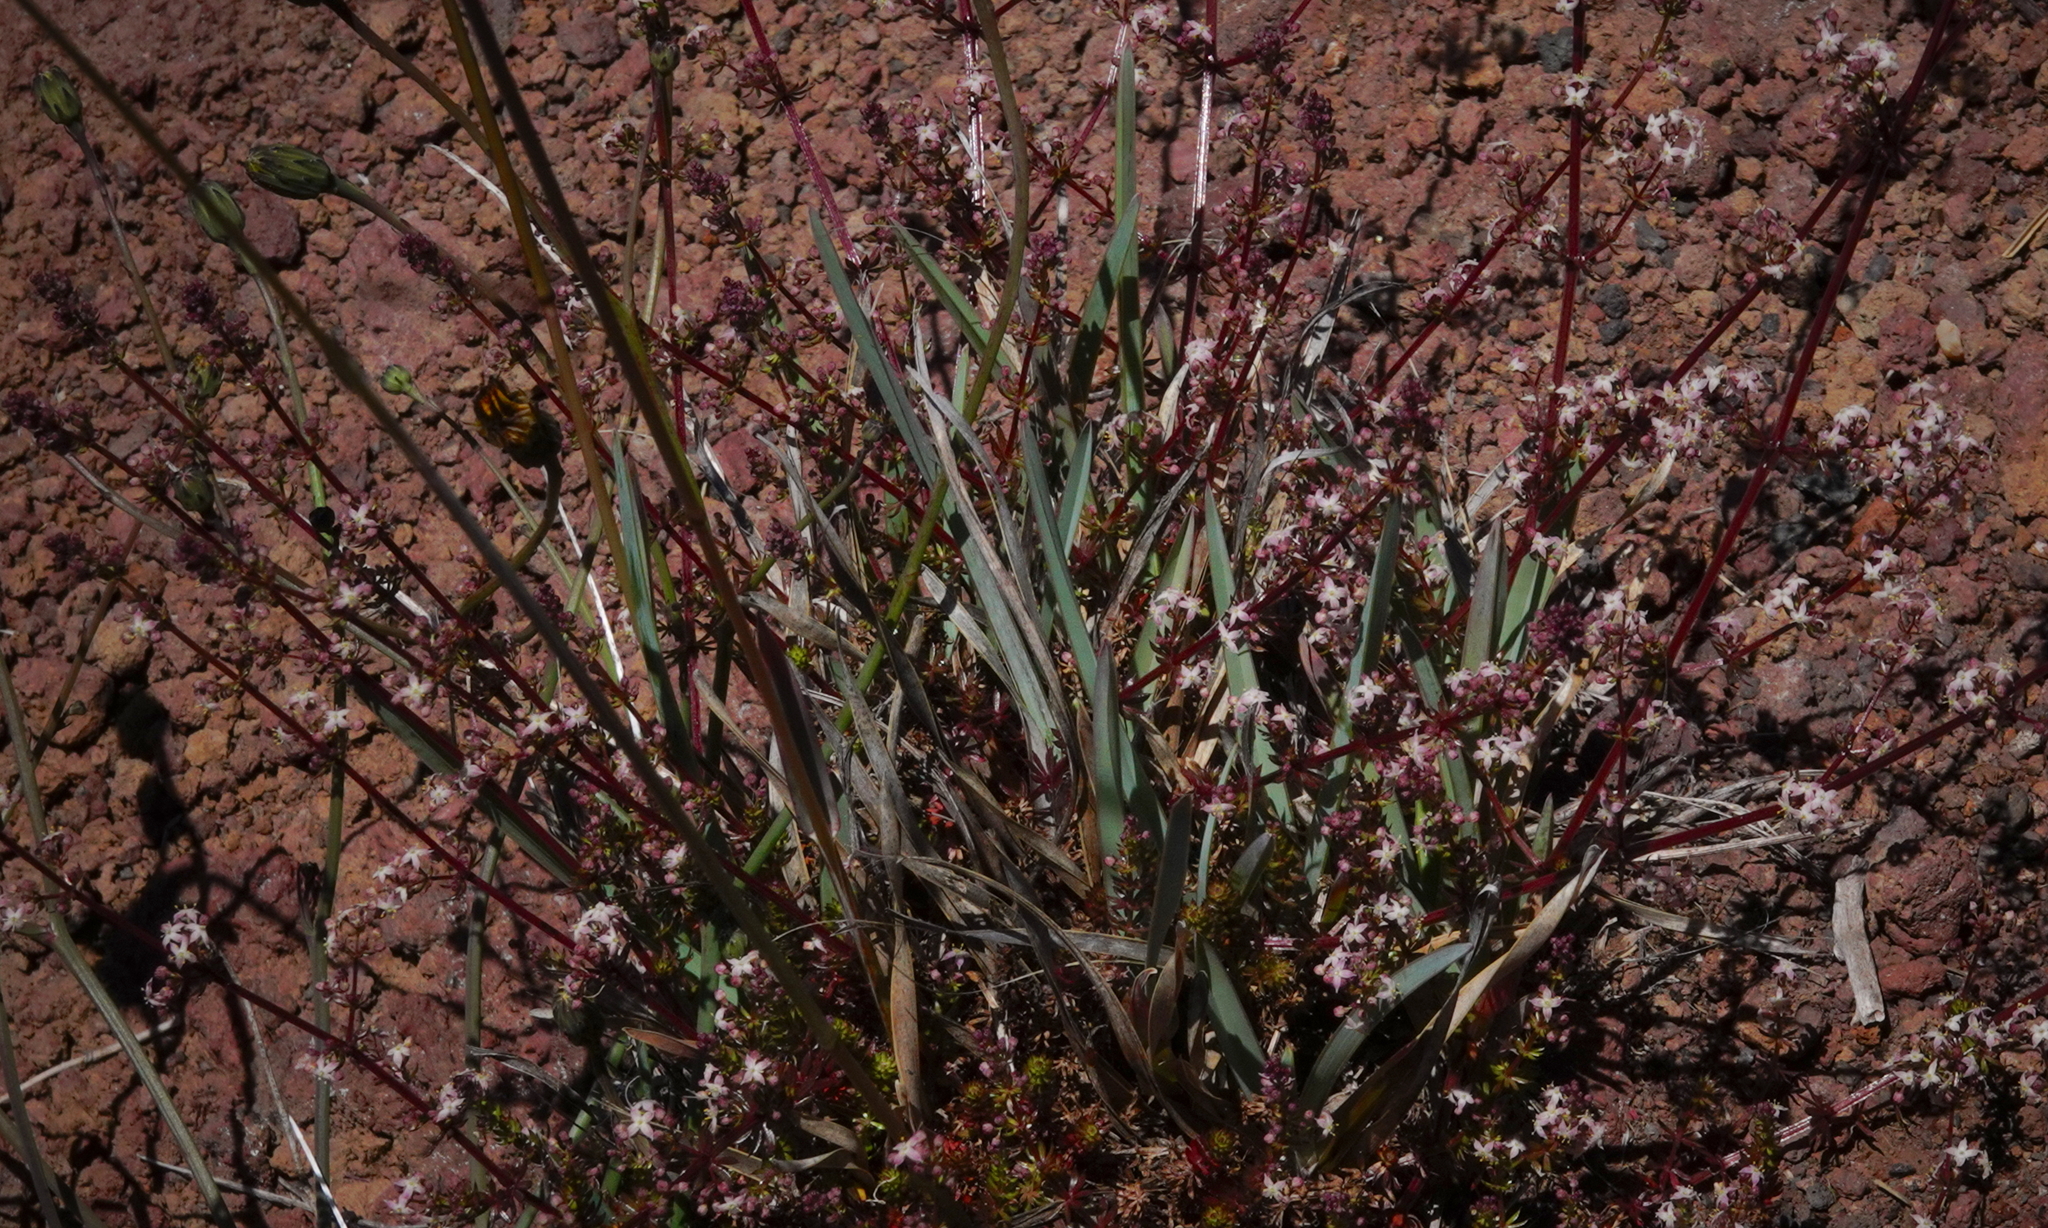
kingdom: Plantae
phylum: Tracheophyta
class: Magnoliopsida
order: Gentianales
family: Rubiaceae
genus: Sherardia
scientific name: Sherardia arvensis
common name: Field madder
